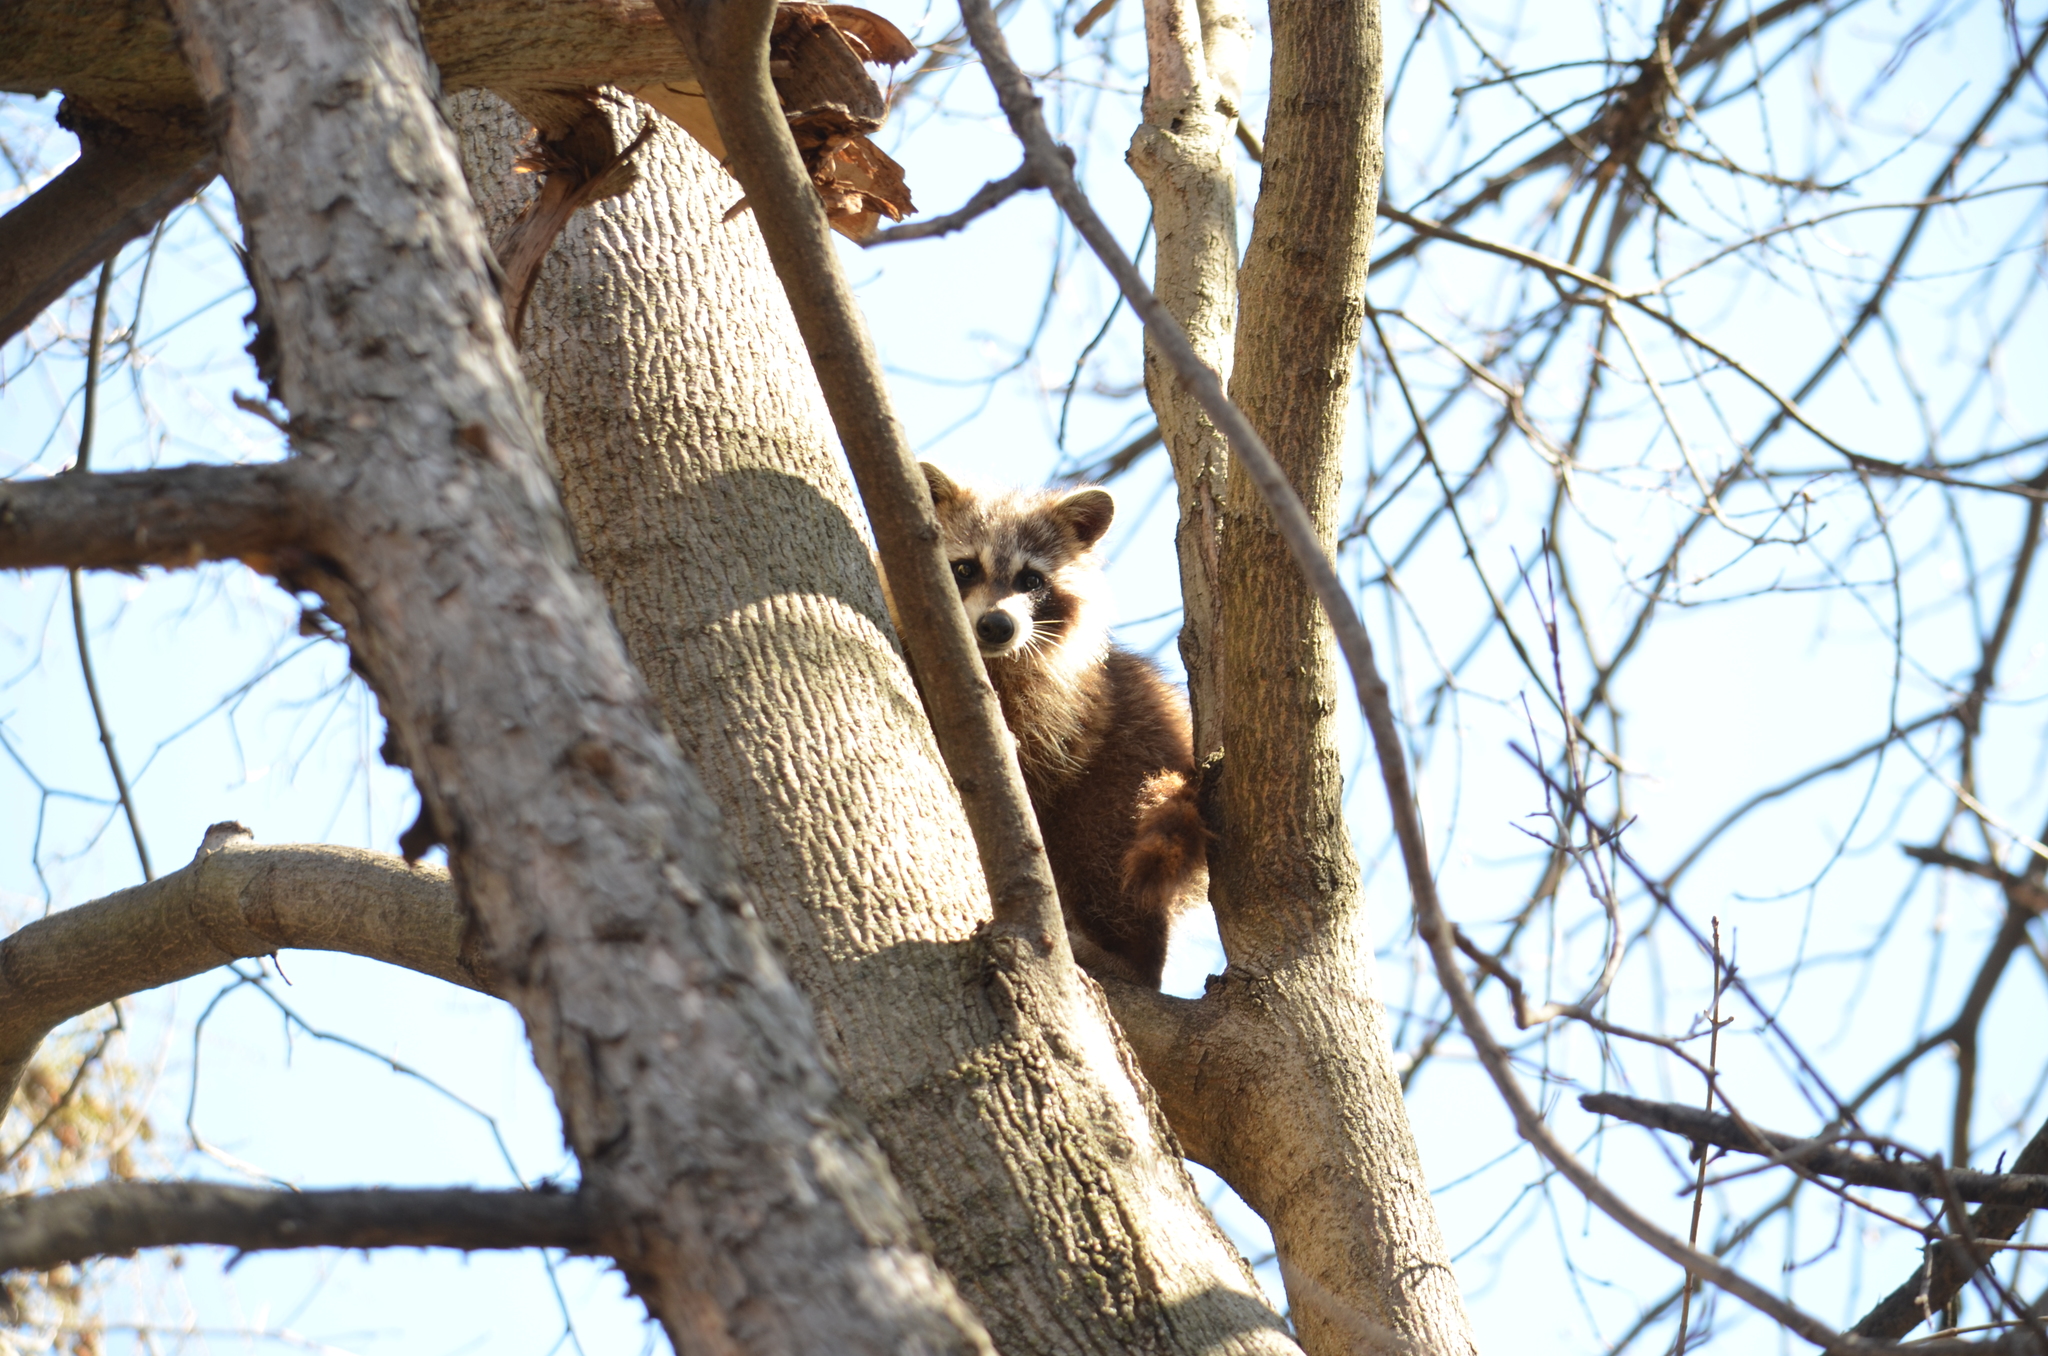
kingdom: Animalia
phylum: Chordata
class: Mammalia
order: Carnivora
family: Procyonidae
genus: Procyon
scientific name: Procyon lotor
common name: Raccoon
